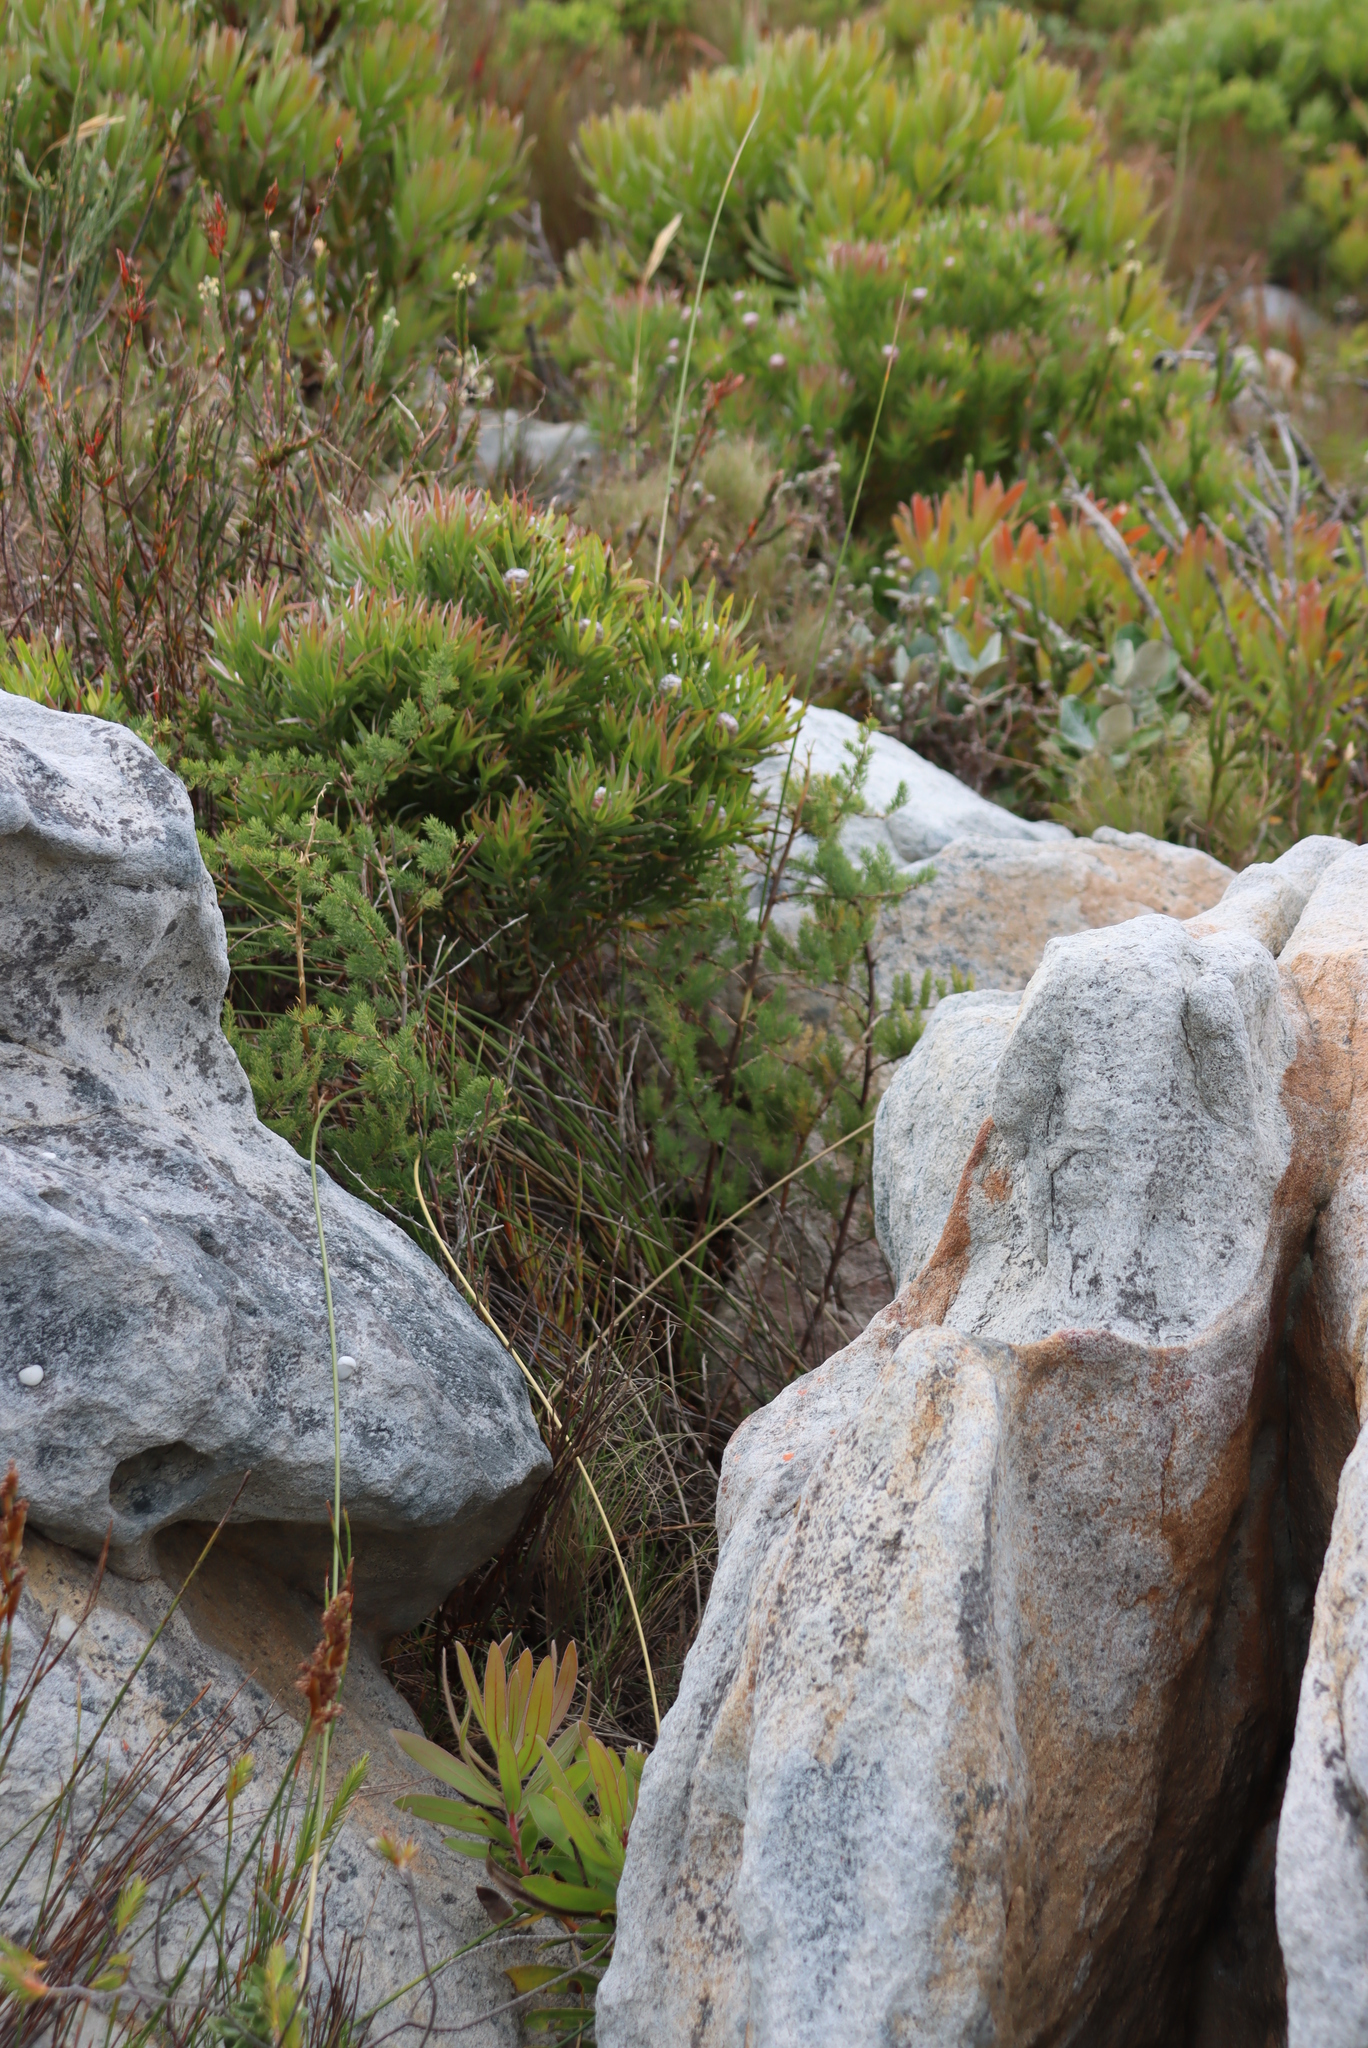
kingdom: Plantae
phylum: Tracheophyta
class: Magnoliopsida
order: Proteales
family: Proteaceae
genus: Leucadendron
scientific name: Leucadendron xanthoconus
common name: Sickle-leaf conebush
